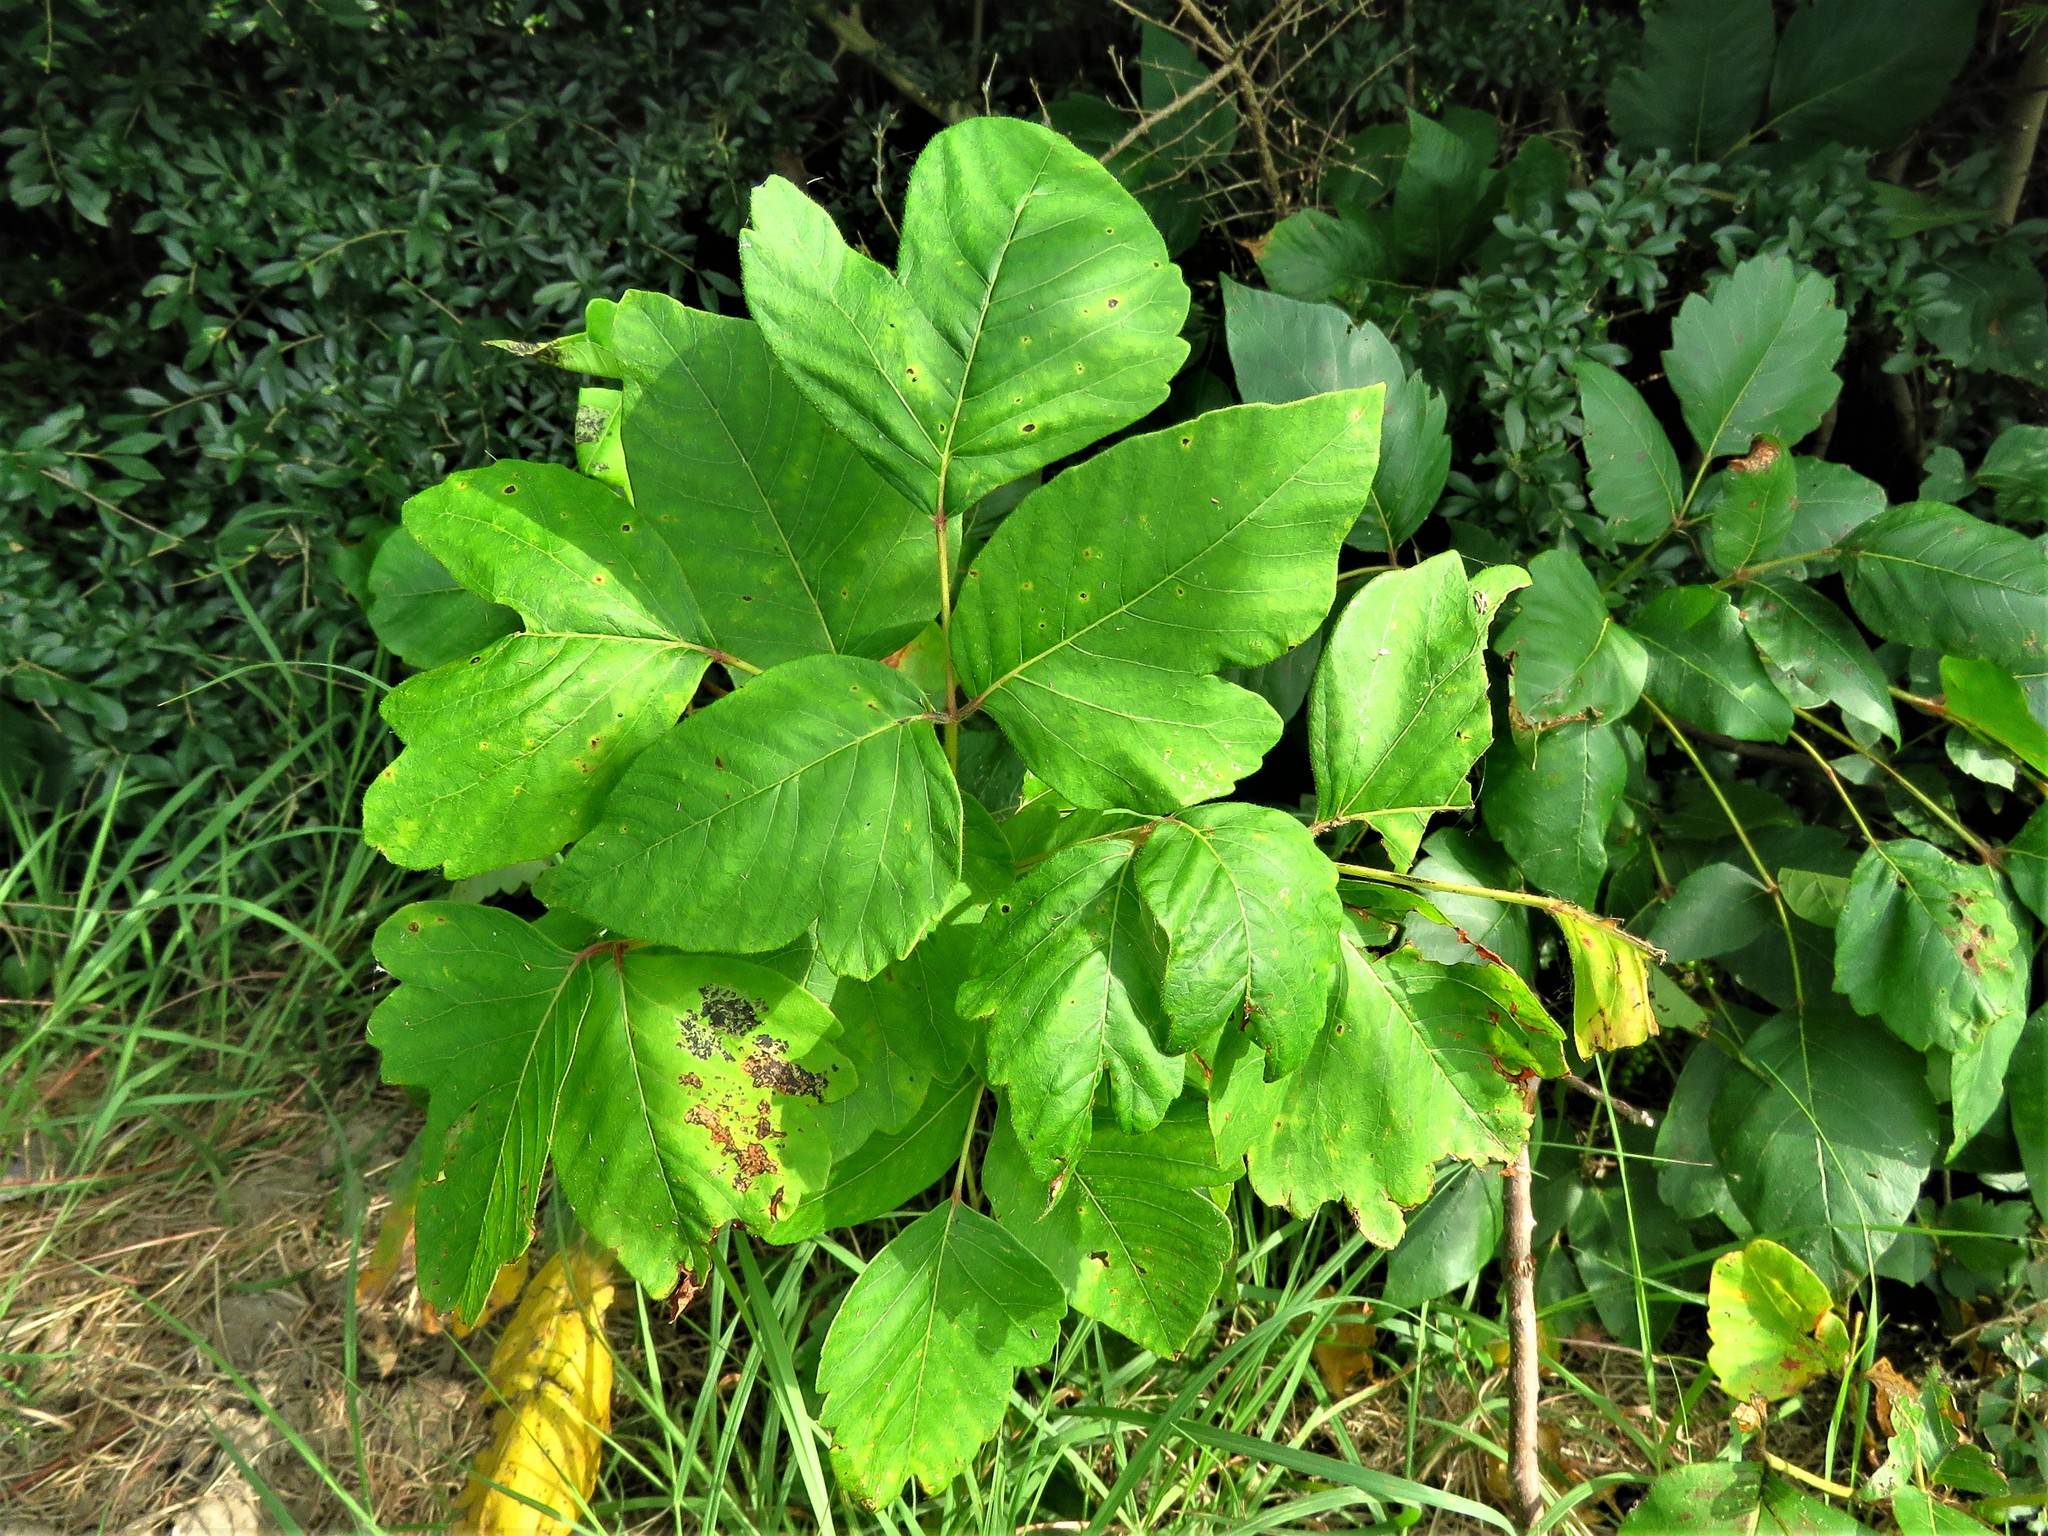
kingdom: Plantae
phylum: Tracheophyta
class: Magnoliopsida
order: Sapindales
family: Anacardiaceae
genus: Toxicodendron
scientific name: Toxicodendron radicans
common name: Poison ivy
